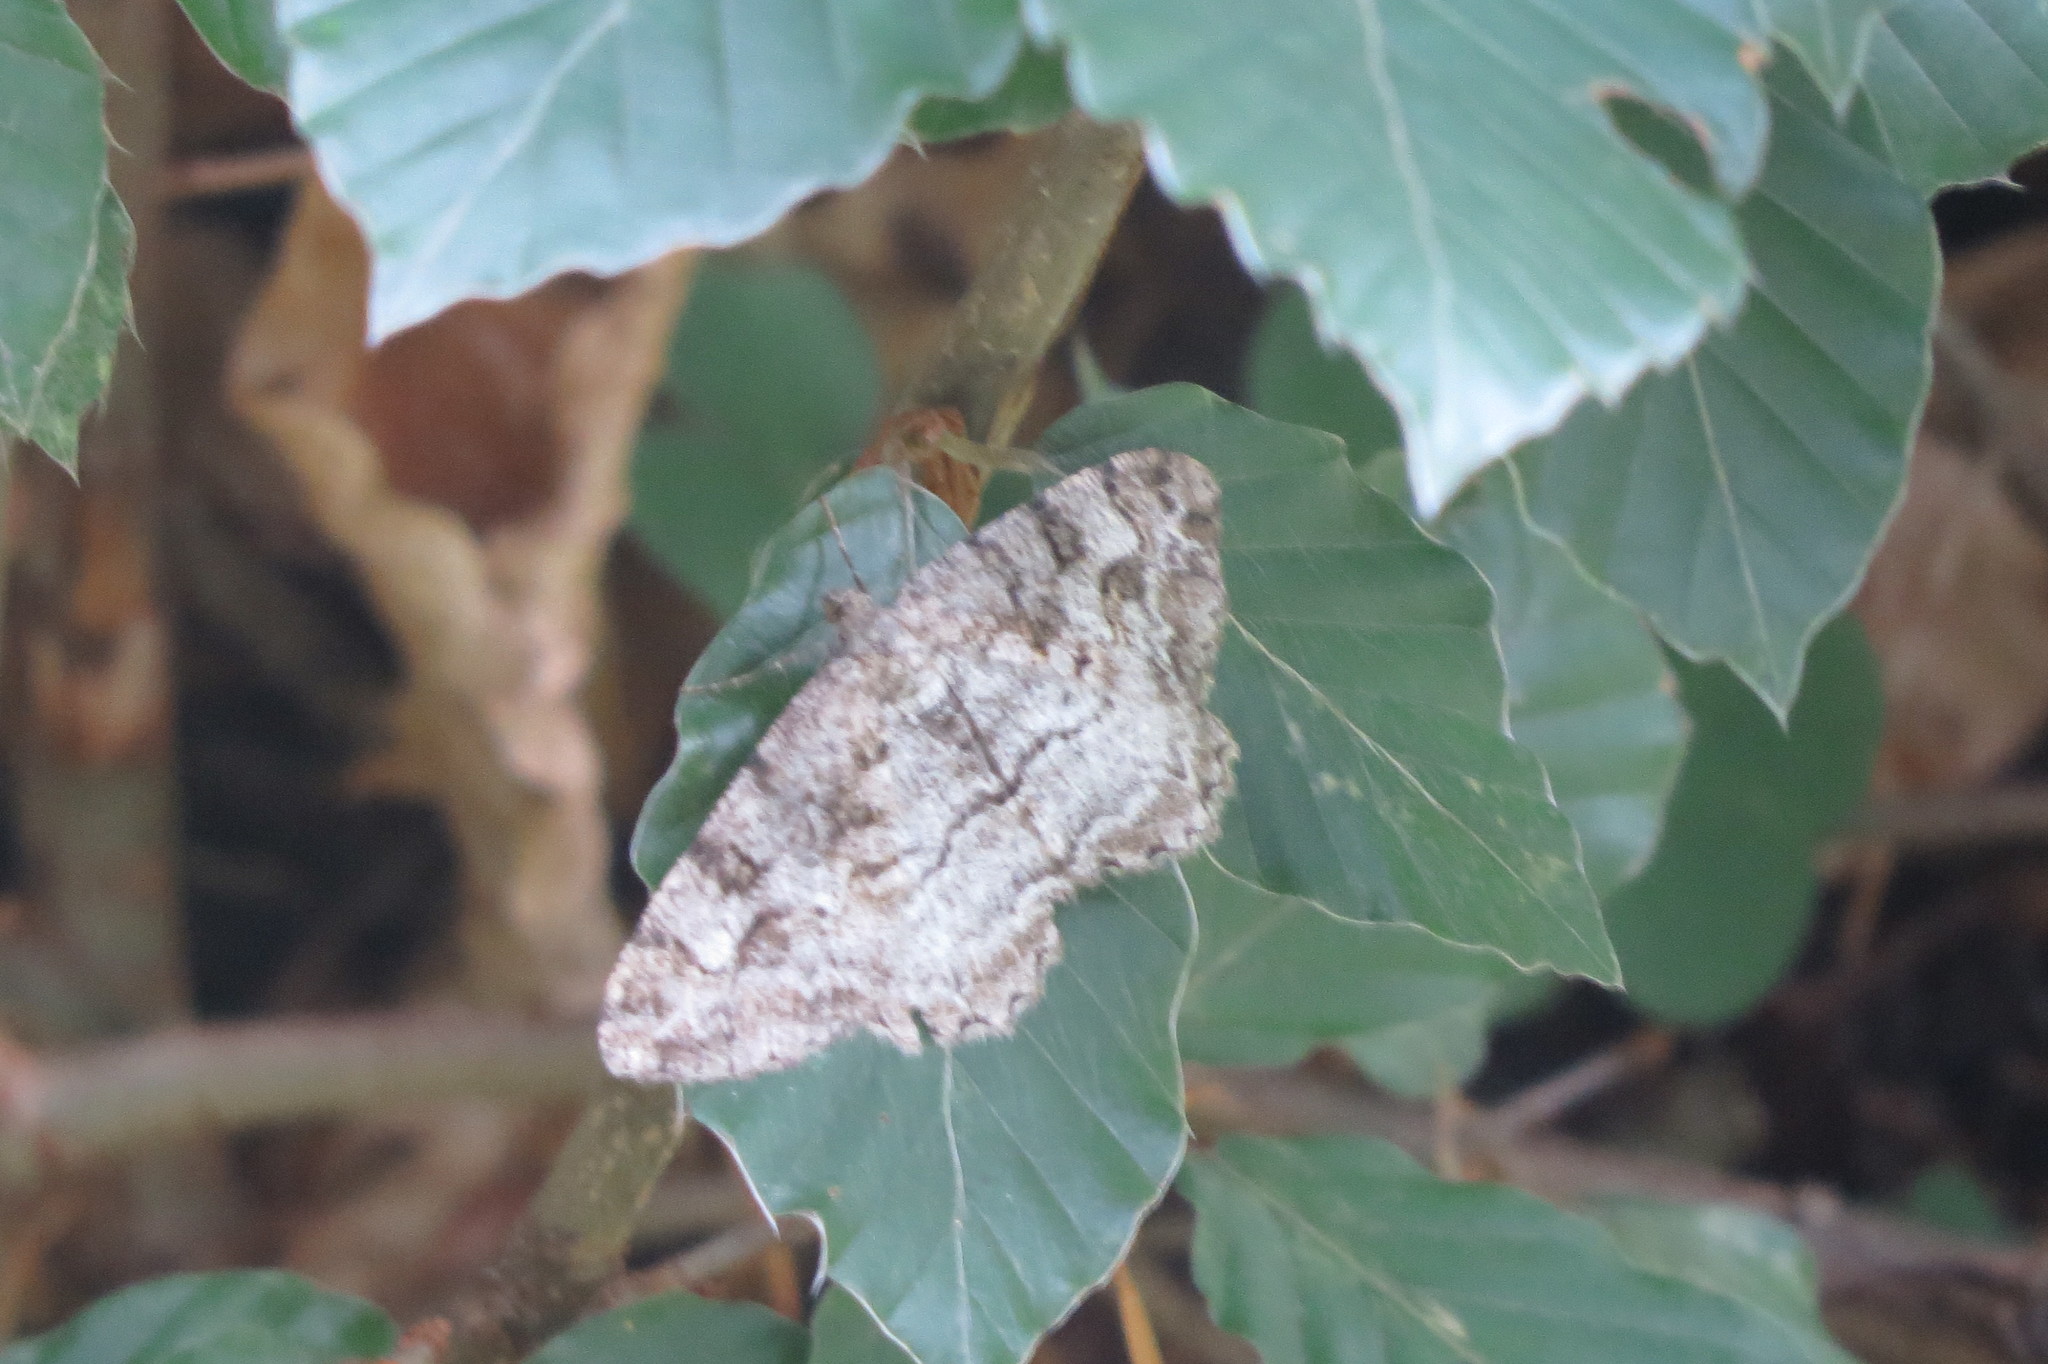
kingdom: Animalia
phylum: Arthropoda
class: Insecta
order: Lepidoptera
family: Geometridae
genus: Alcis
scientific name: Alcis repandata
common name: Mottled beauty
